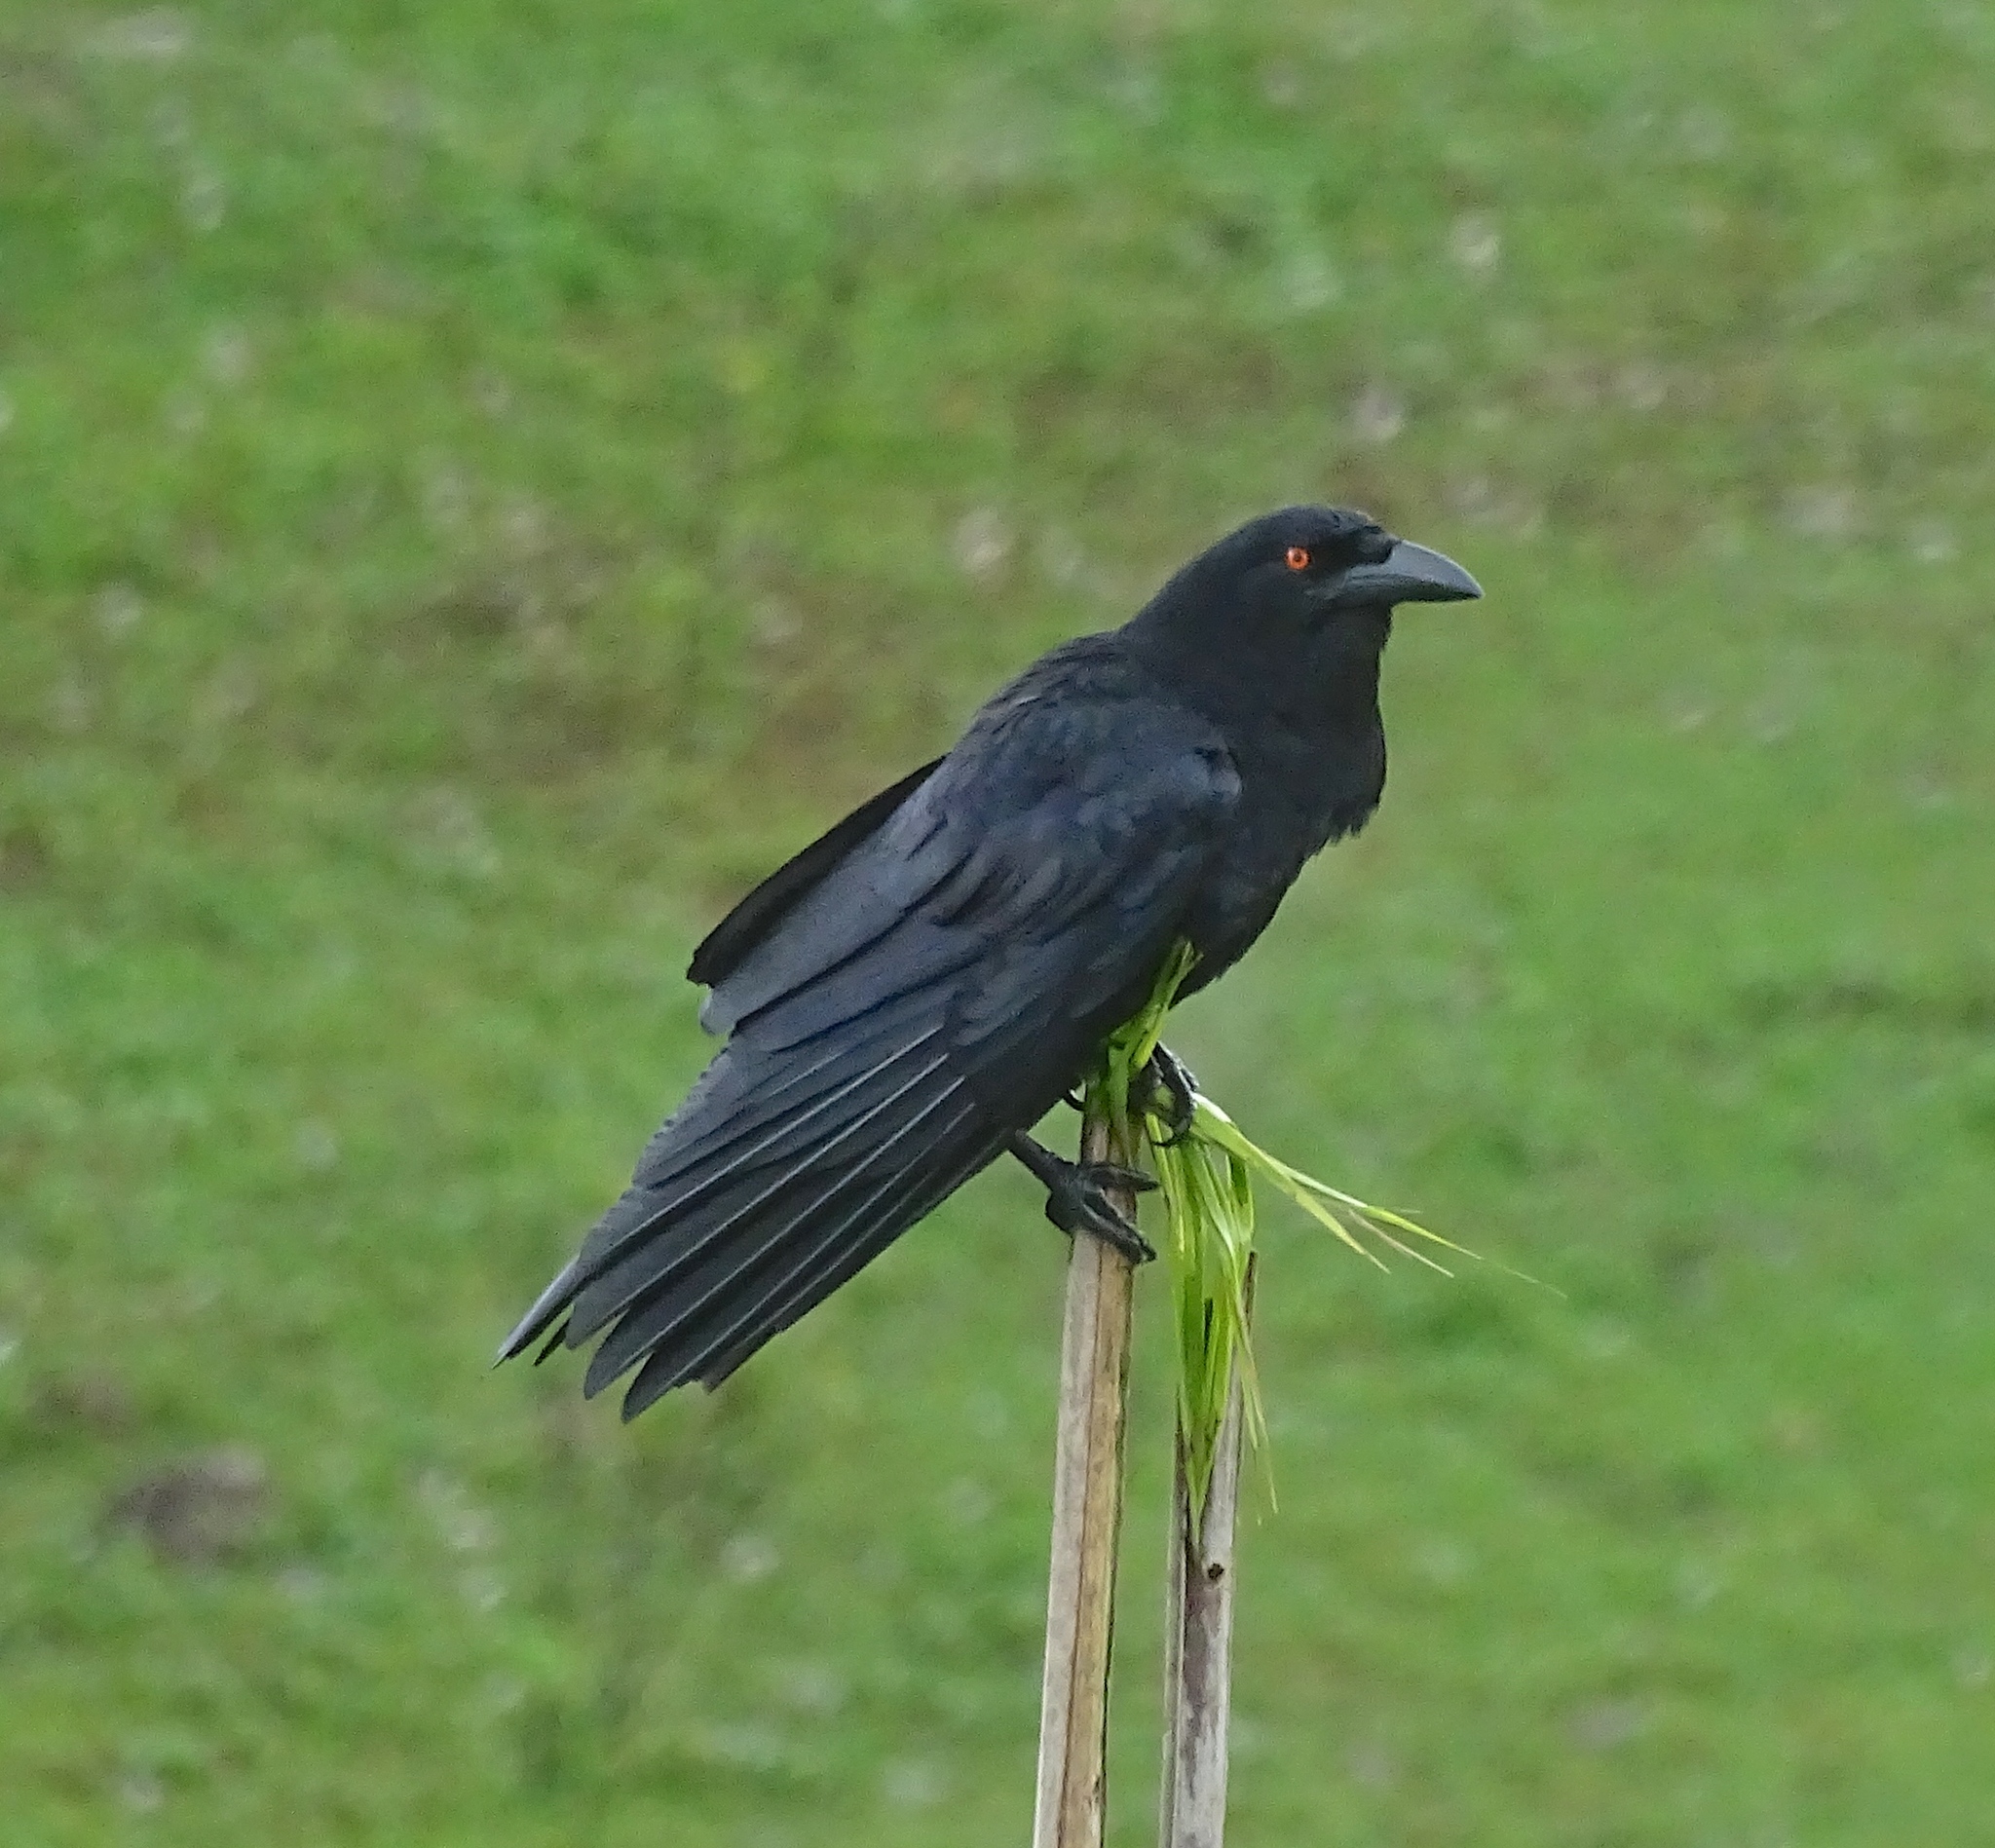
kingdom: Animalia
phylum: Chordata
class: Aves
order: Passeriformes
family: Corvidae
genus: Corvus
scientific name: Corvus leucognaphalus
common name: White-necked crow
